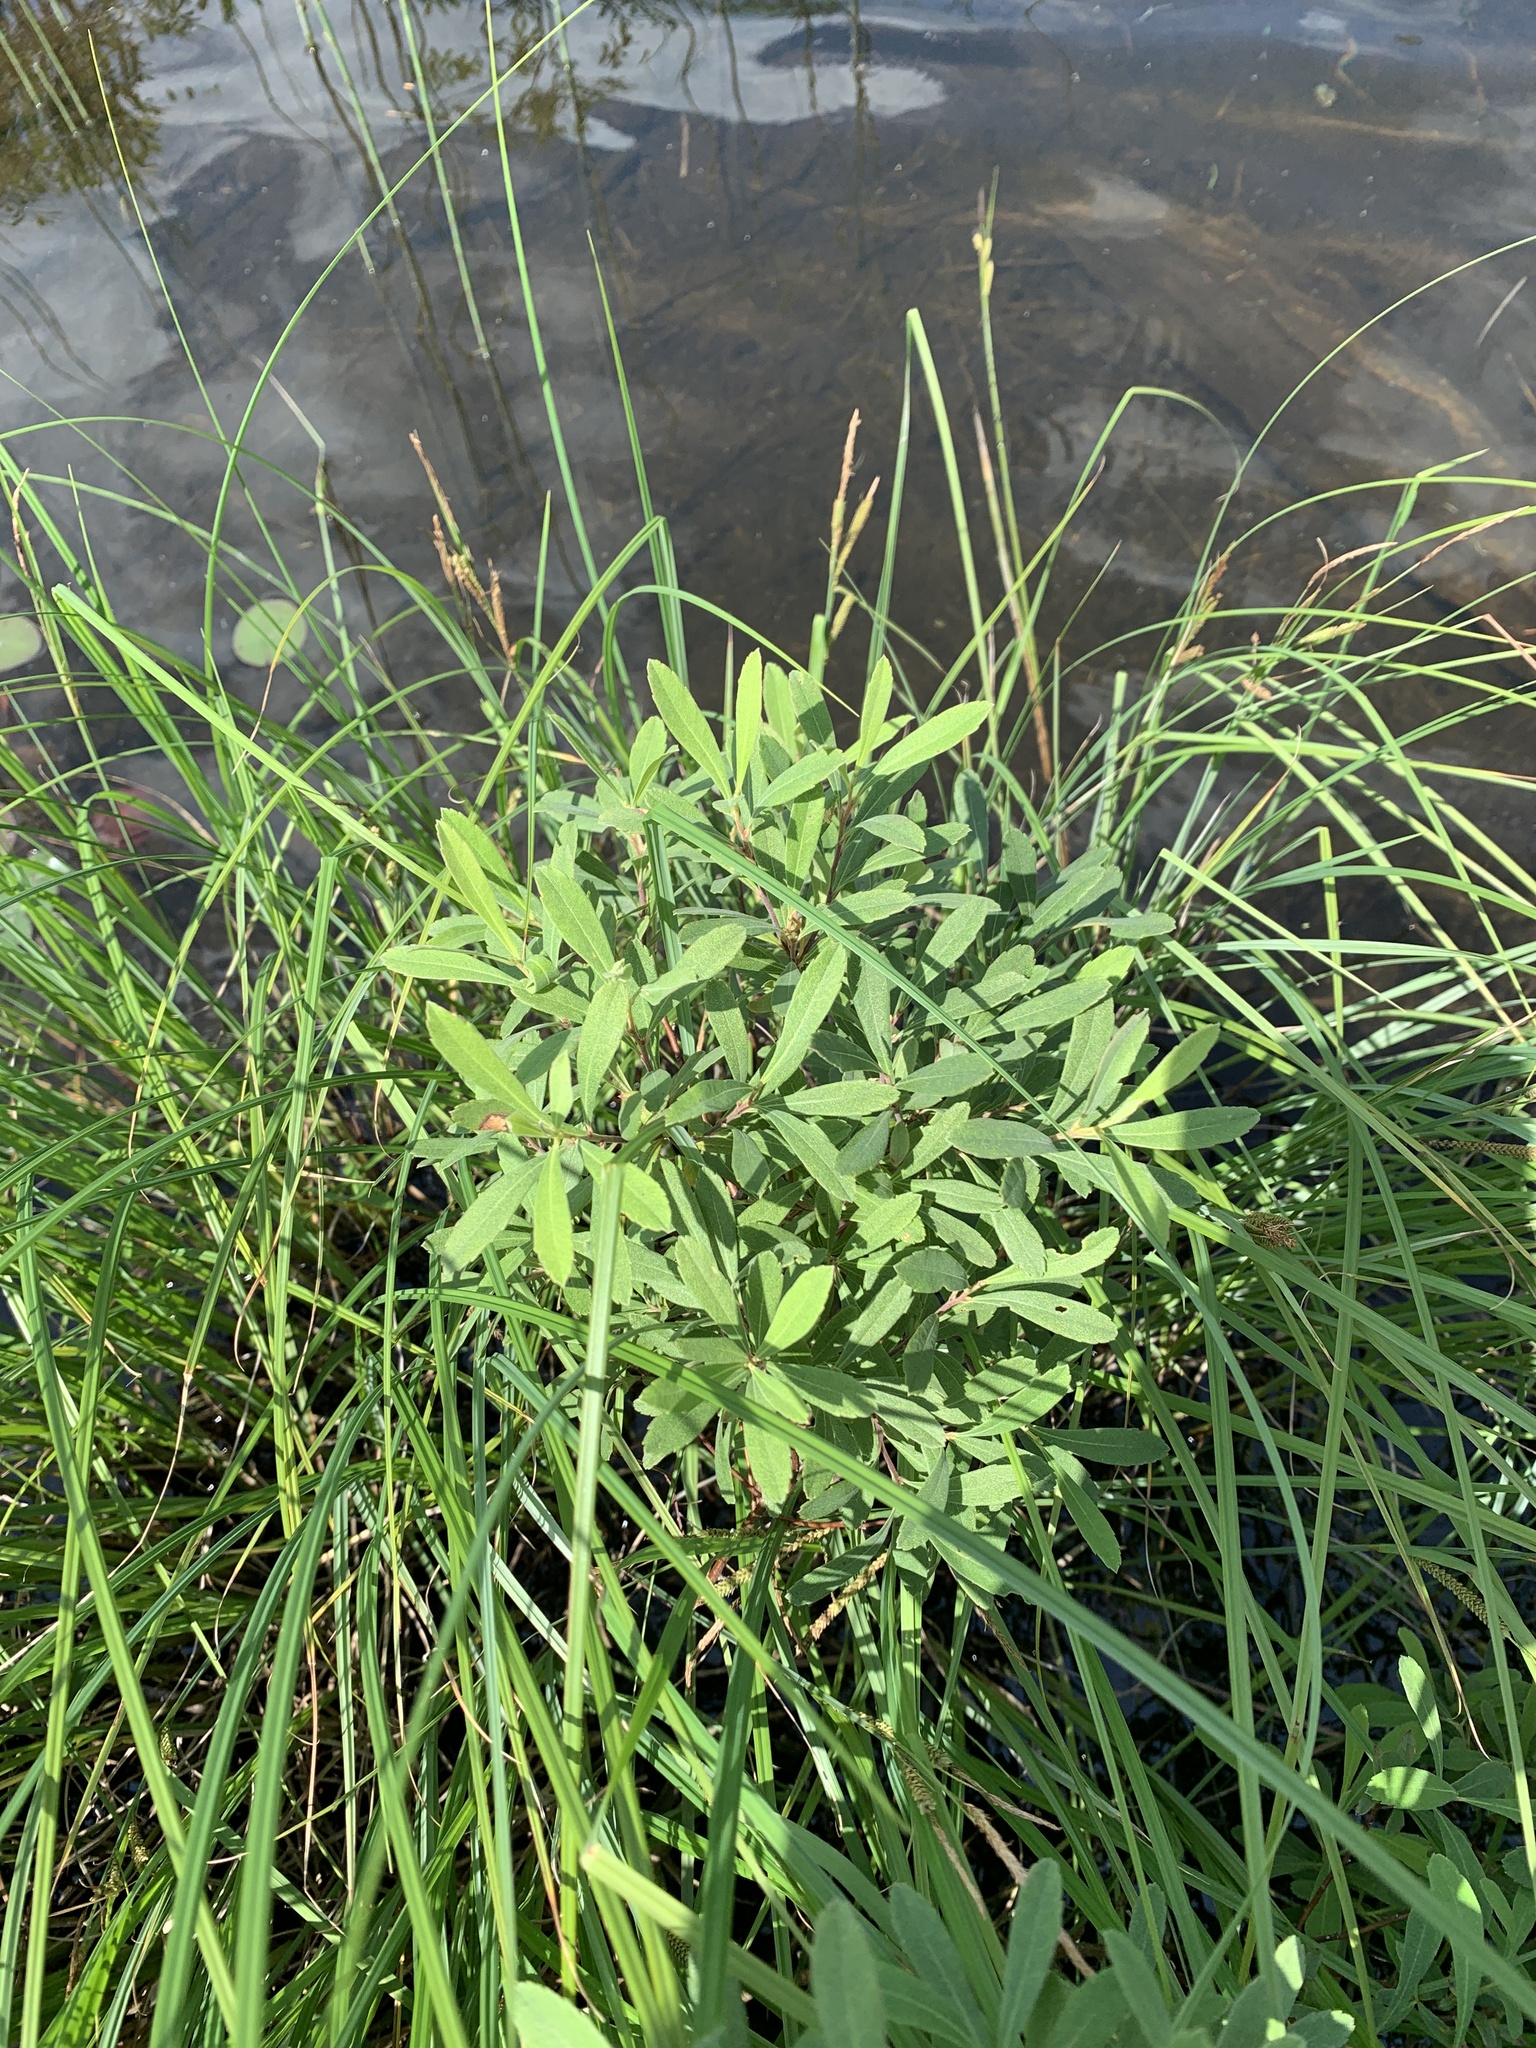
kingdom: Plantae
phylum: Tracheophyta
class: Magnoliopsida
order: Fagales
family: Myricaceae
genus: Myrica
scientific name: Myrica gale
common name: Sweet gale
